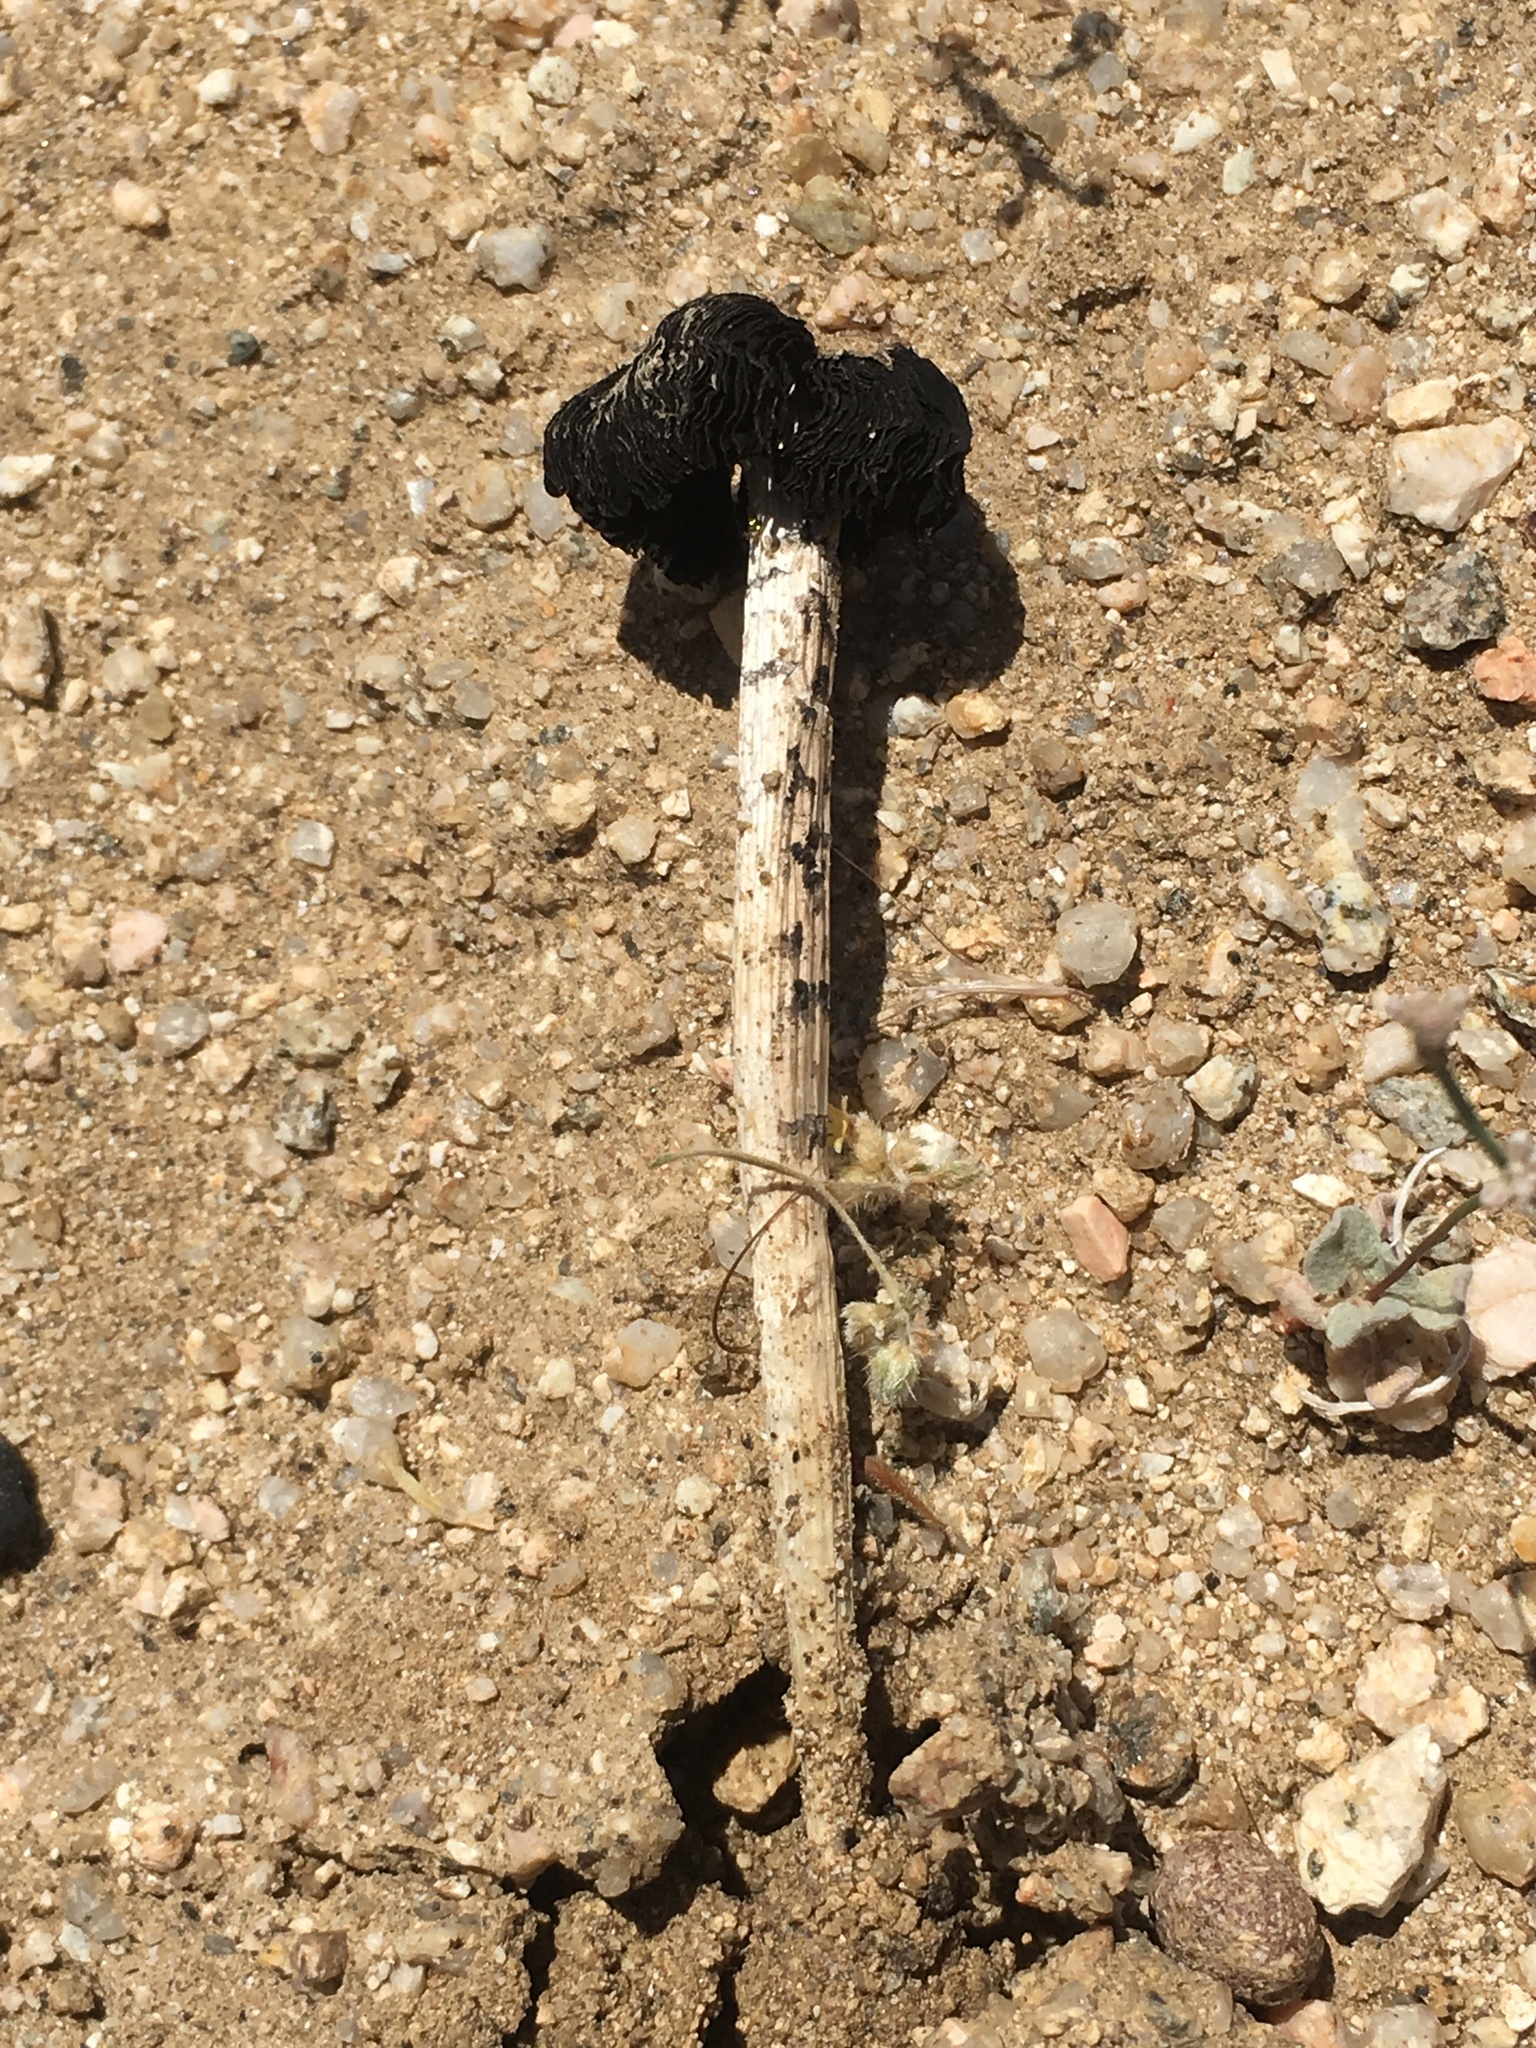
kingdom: Fungi
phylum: Basidiomycota
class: Agaricomycetes
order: Agaricales
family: Agaricaceae
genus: Montagnea
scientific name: Montagnea arenaria
